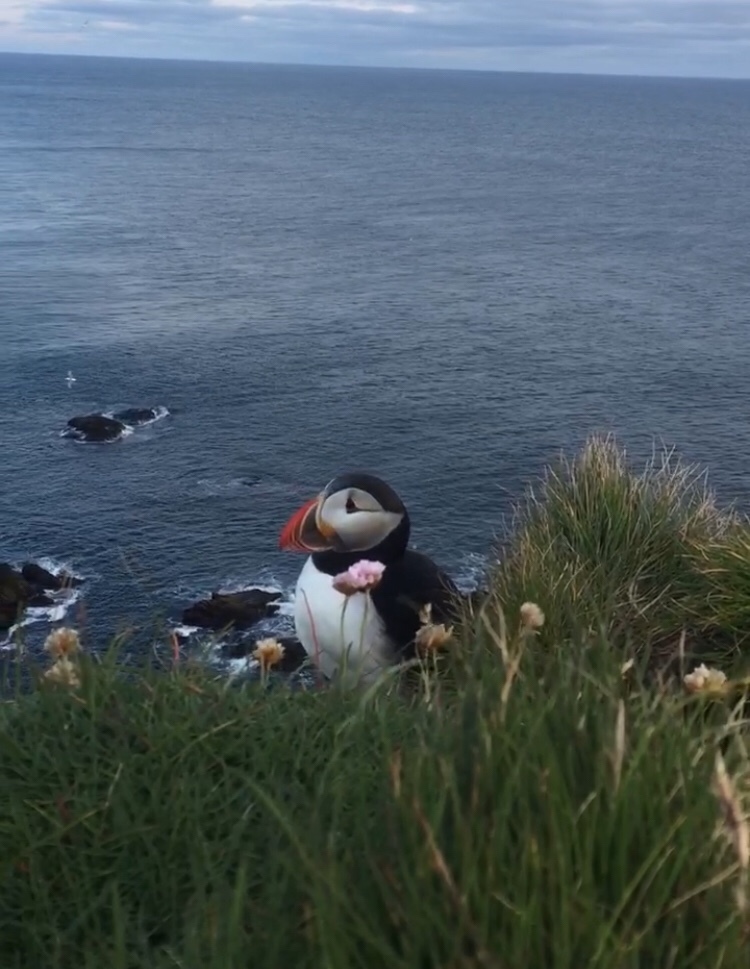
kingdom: Animalia
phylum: Chordata
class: Aves
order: Charadriiformes
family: Alcidae
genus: Fratercula
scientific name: Fratercula arctica
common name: Atlantic puffin
